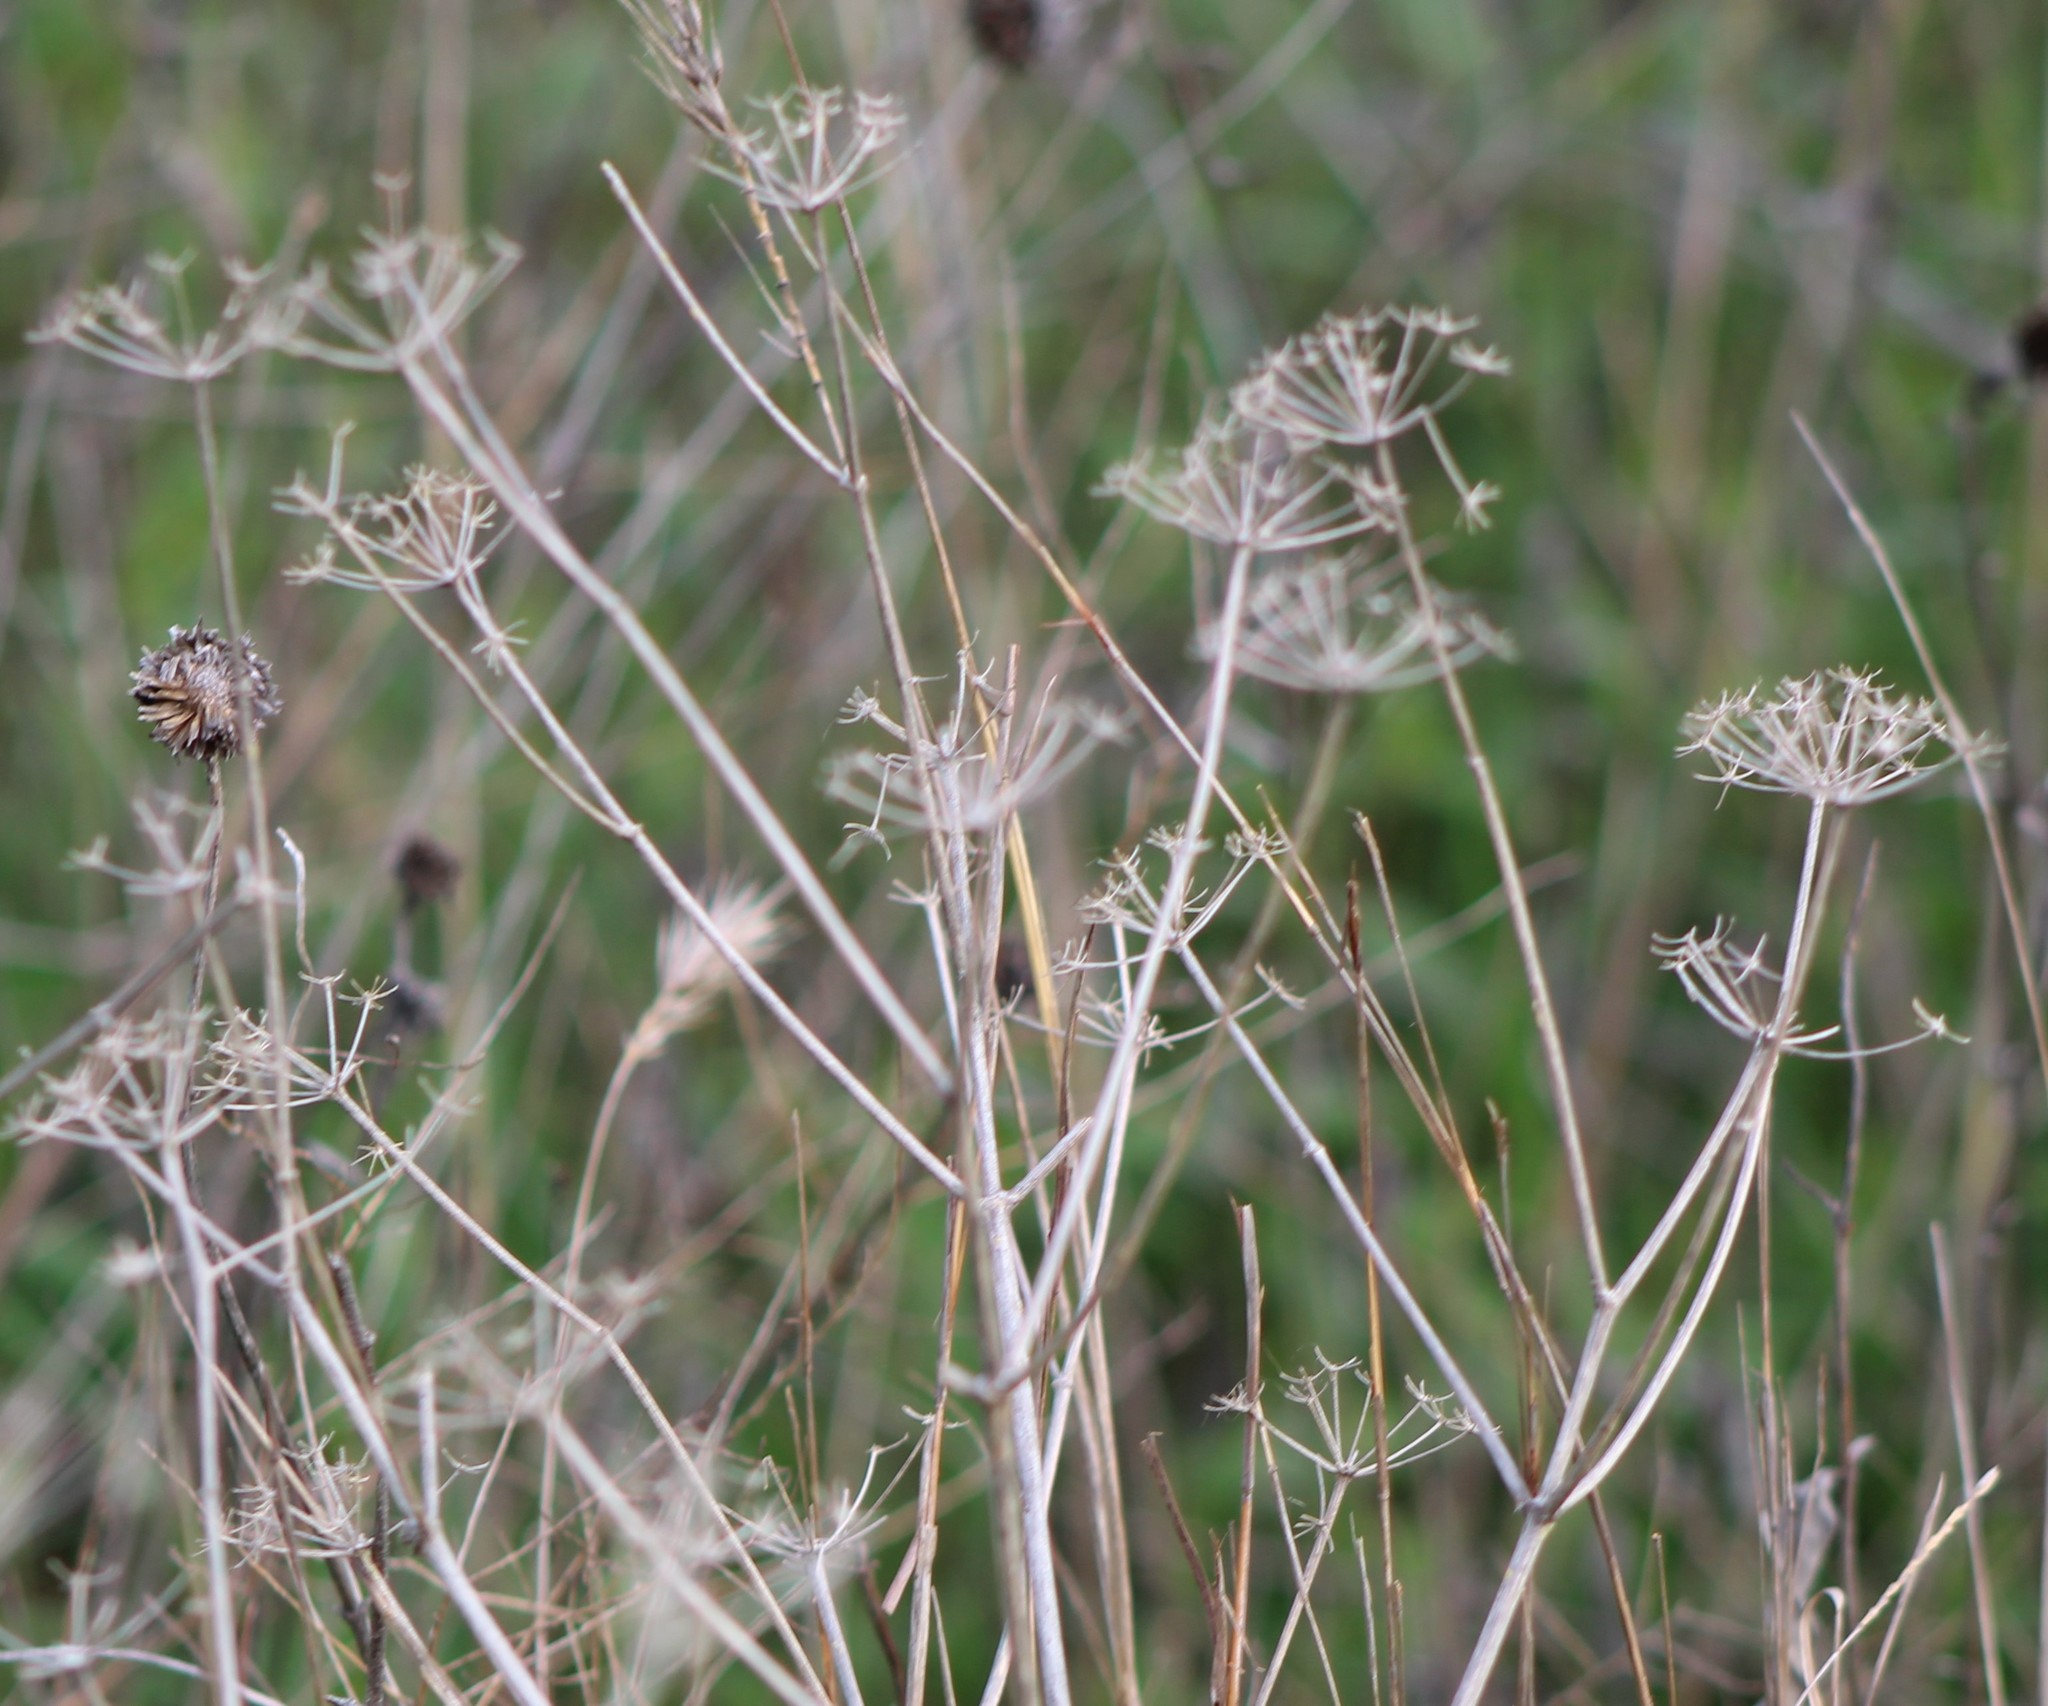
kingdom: Plantae
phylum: Tracheophyta
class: Magnoliopsida
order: Apiales
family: Apiaceae
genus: Polytaenia
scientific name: Polytaenia texana
